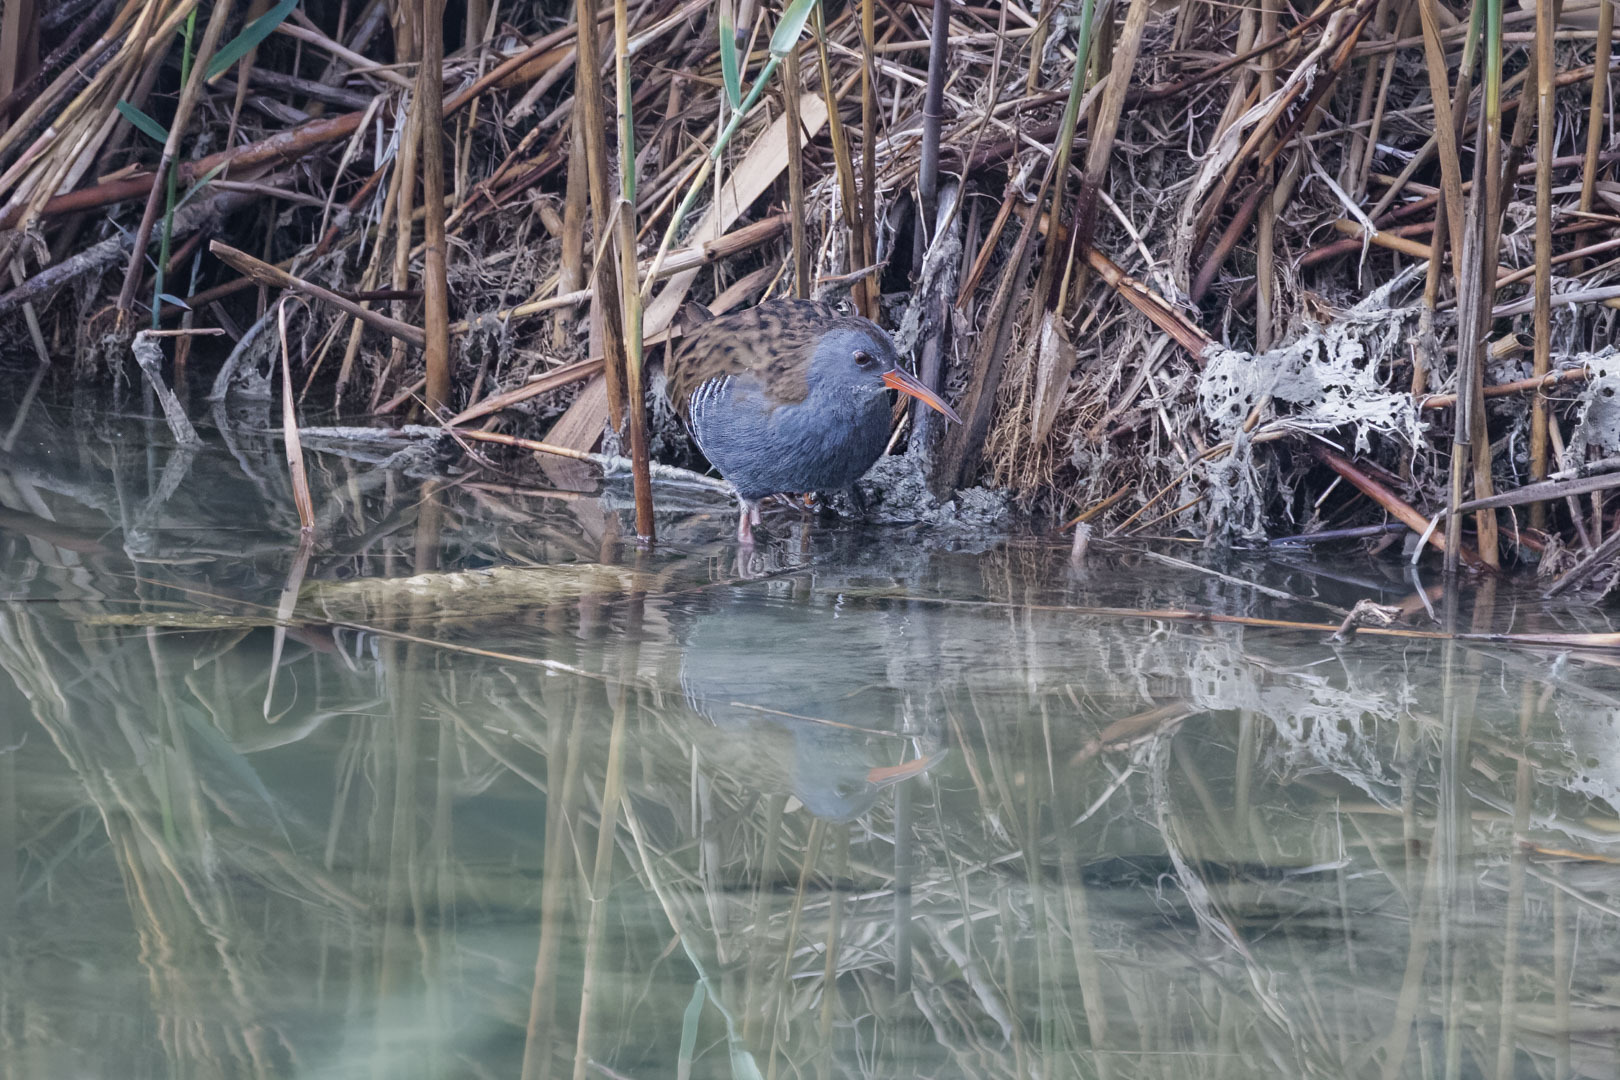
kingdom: Animalia
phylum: Chordata
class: Aves
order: Gruiformes
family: Rallidae
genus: Rallus
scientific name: Rallus aquaticus
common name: Water rail
